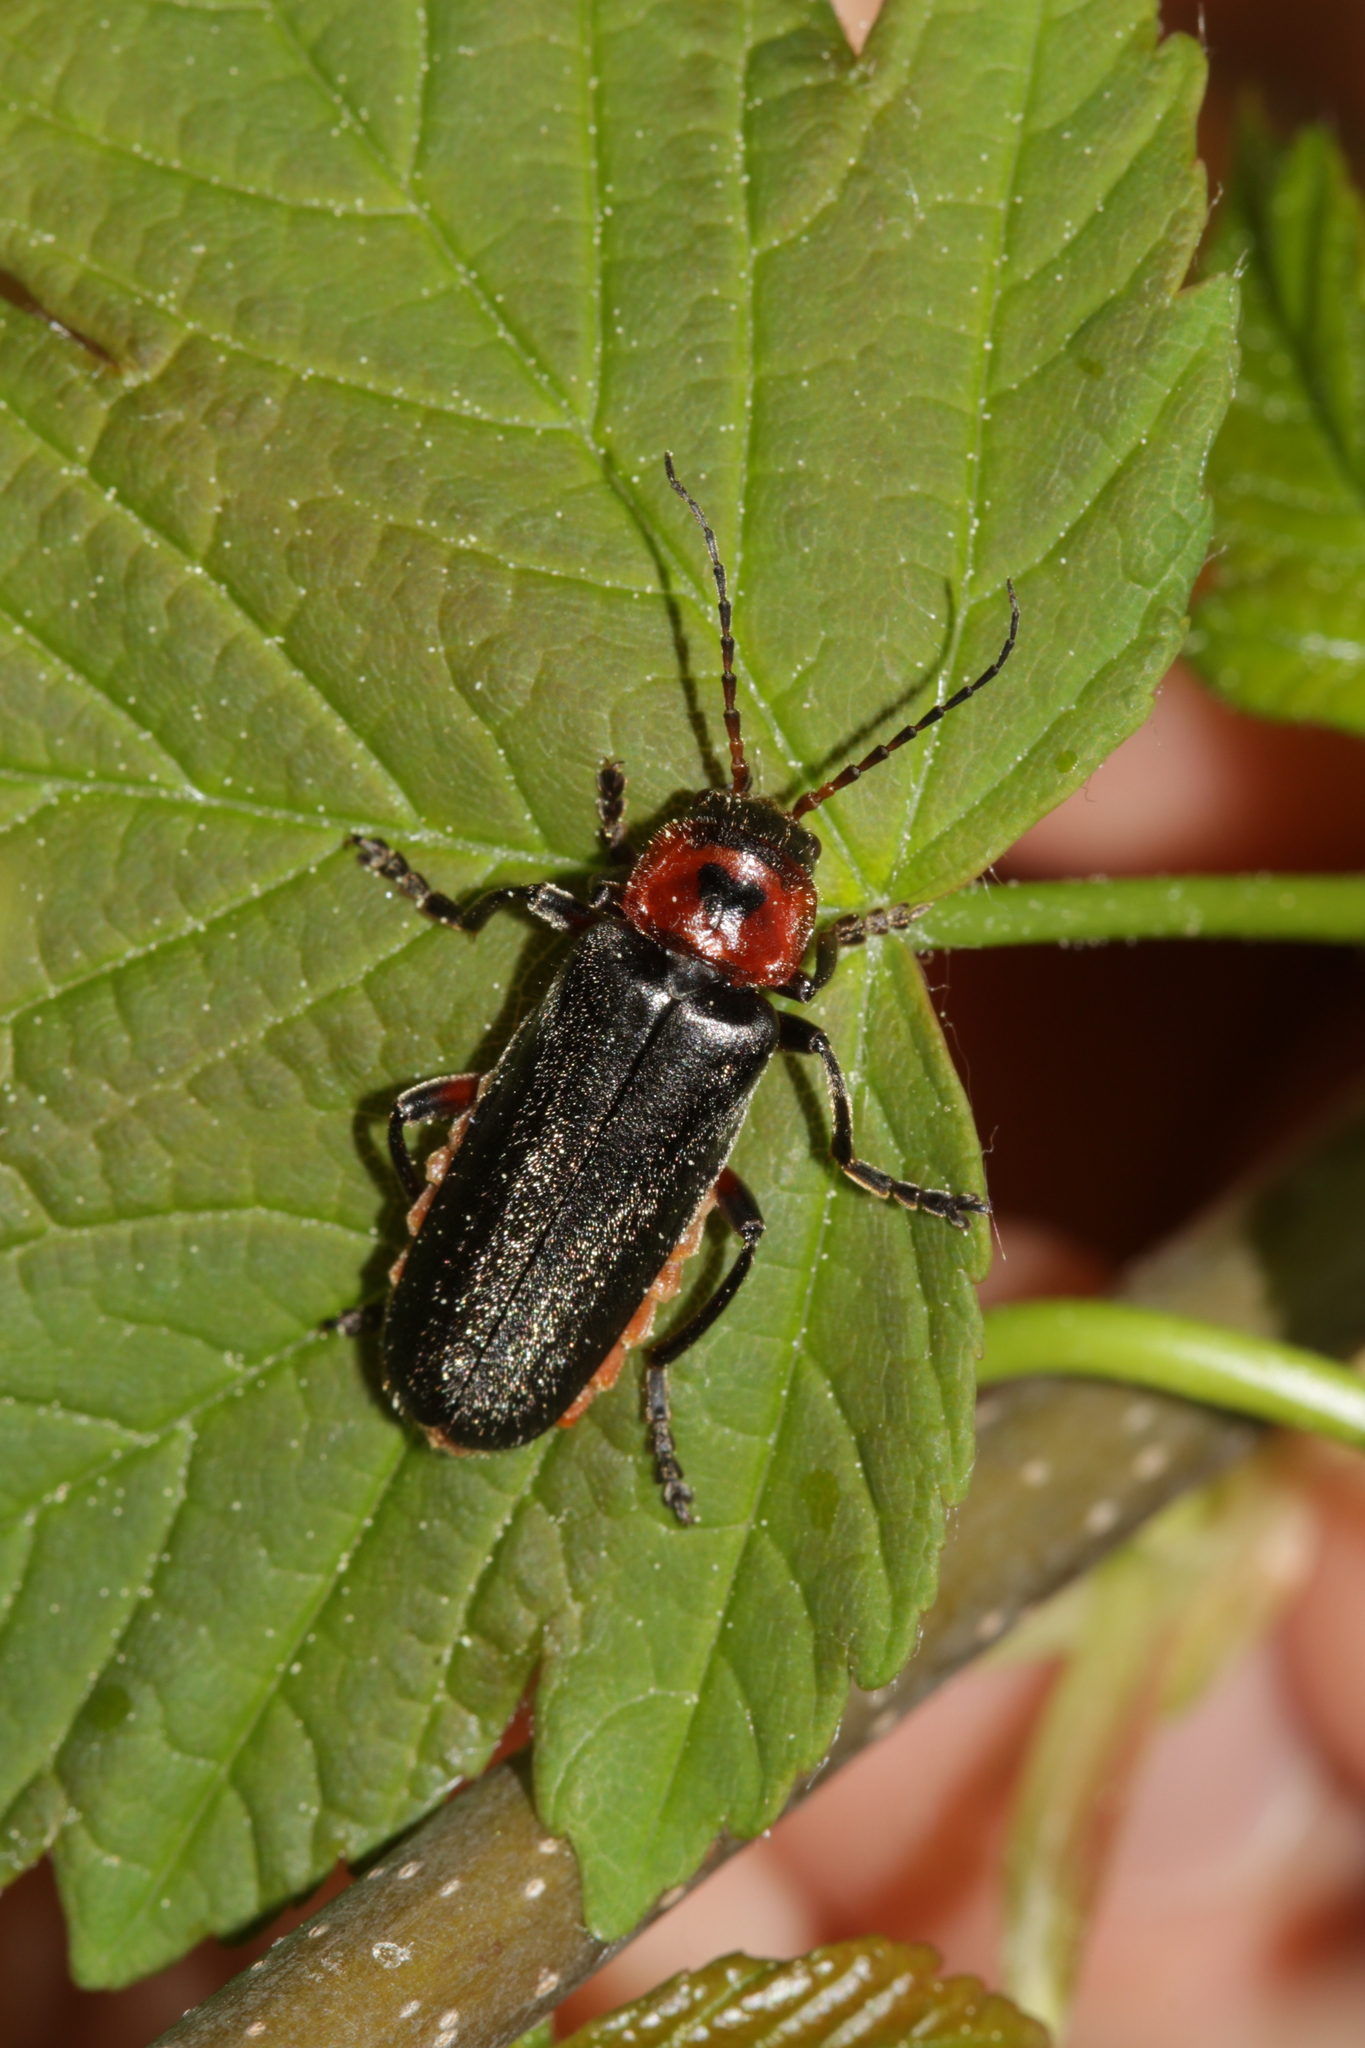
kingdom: Animalia
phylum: Arthropoda
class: Insecta
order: Coleoptera
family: Cantharidae
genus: Cantharis
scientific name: Cantharis rustica
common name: Soldier beetle
